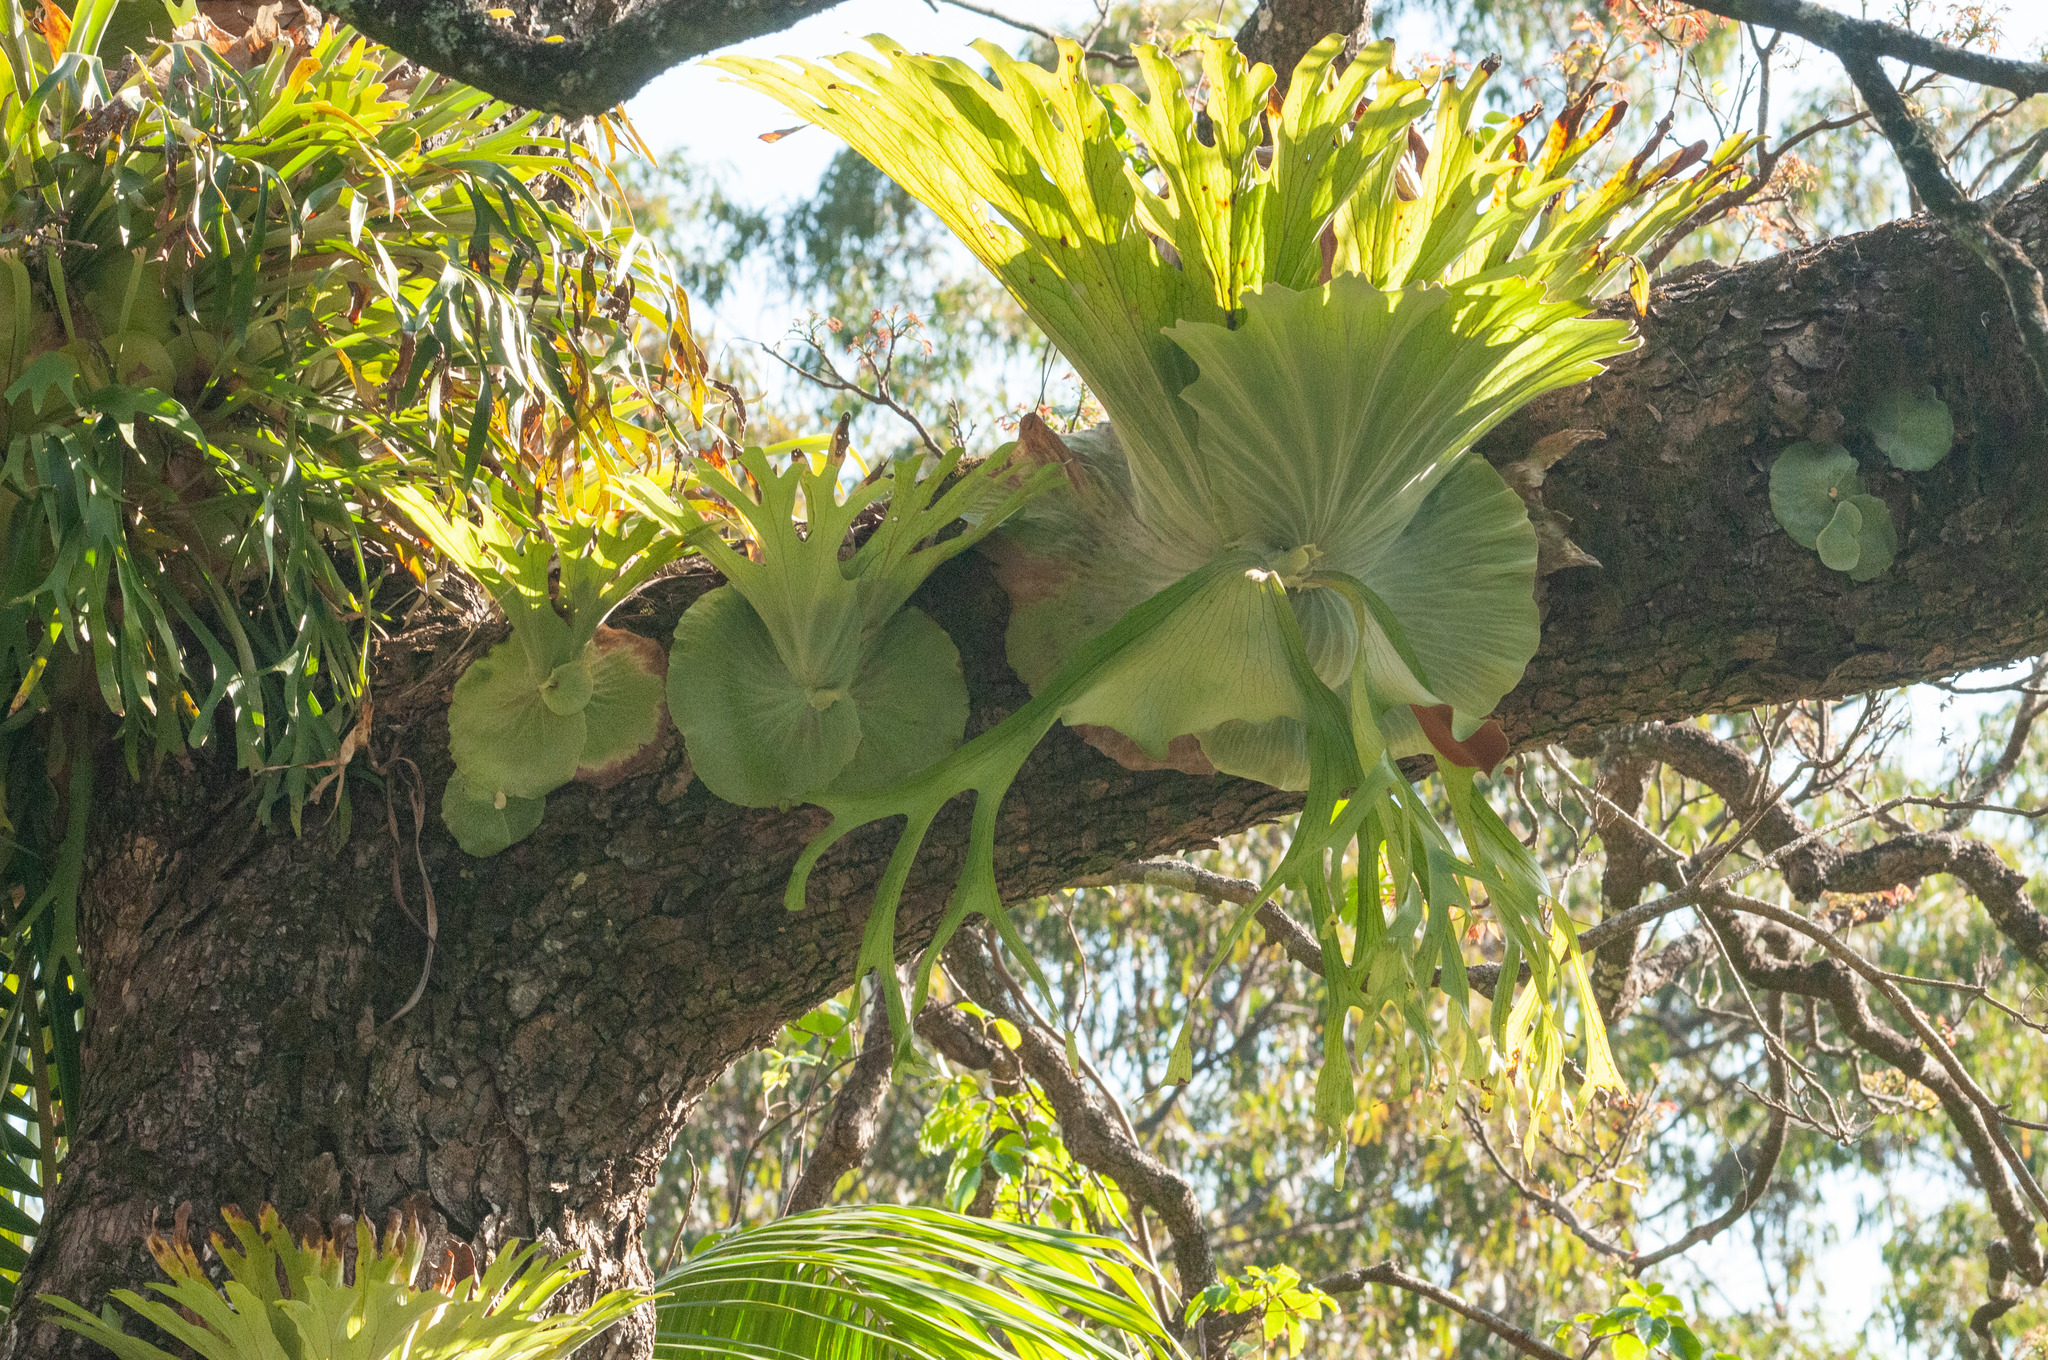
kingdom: Plantae
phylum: Tracheophyta
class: Polypodiopsida
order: Polypodiales
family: Polypodiaceae
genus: Platycerium
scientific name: Platycerium superbum
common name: Staghorn fern
